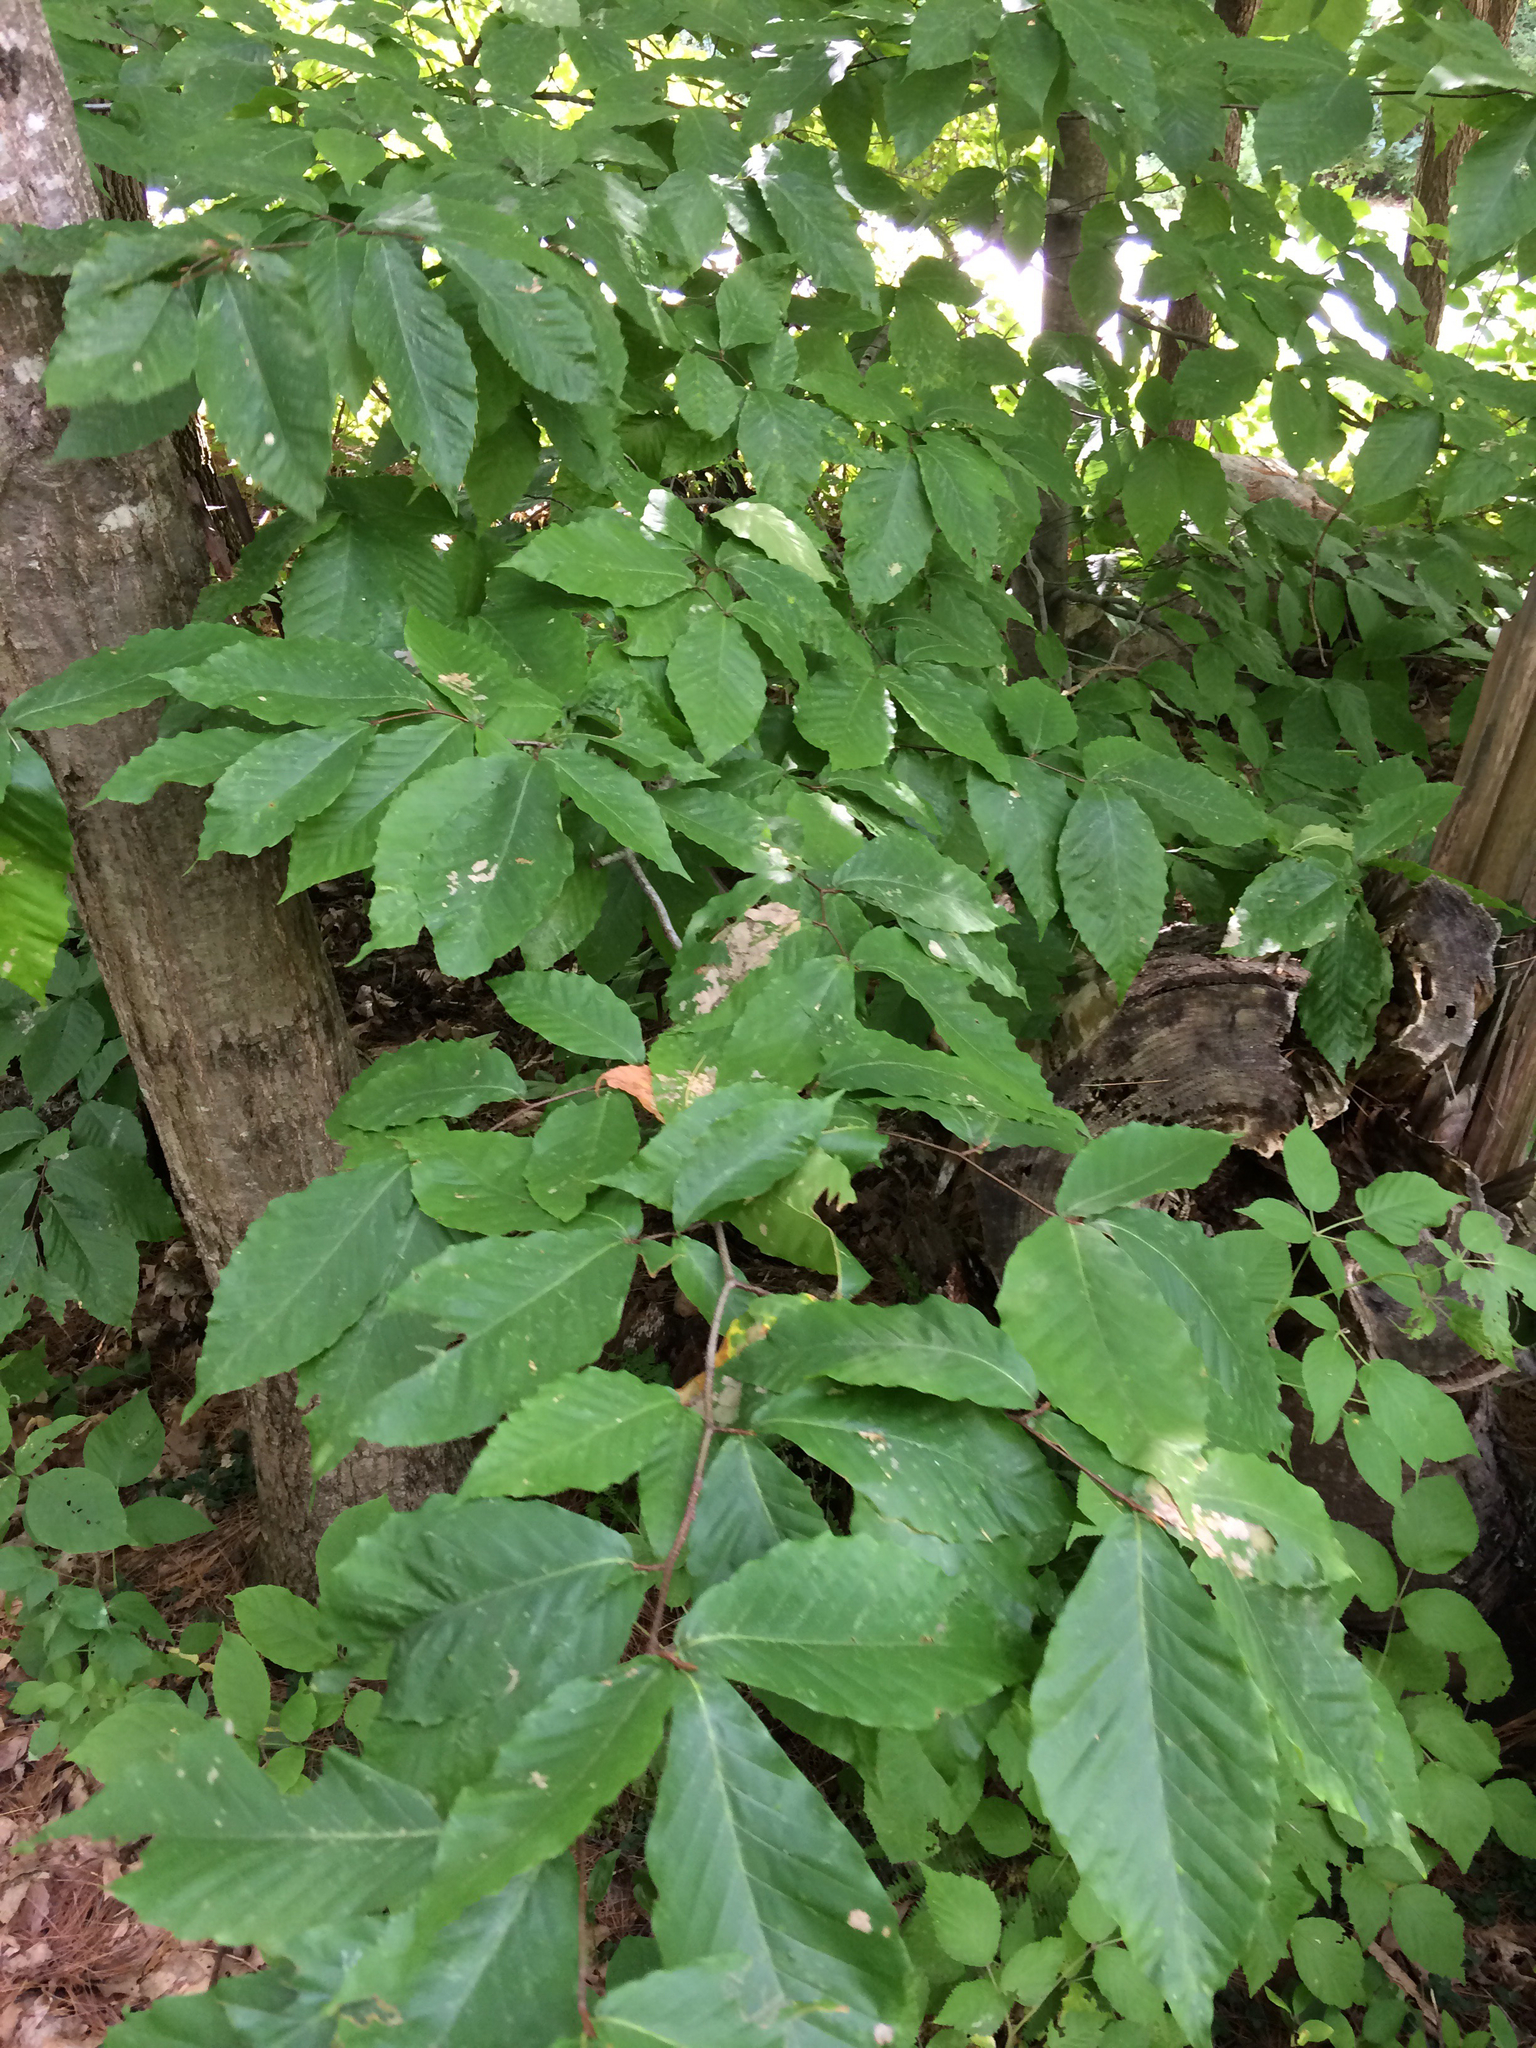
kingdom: Plantae
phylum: Tracheophyta
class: Magnoliopsida
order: Fagales
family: Fagaceae
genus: Fagus
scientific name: Fagus grandifolia
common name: American beech
